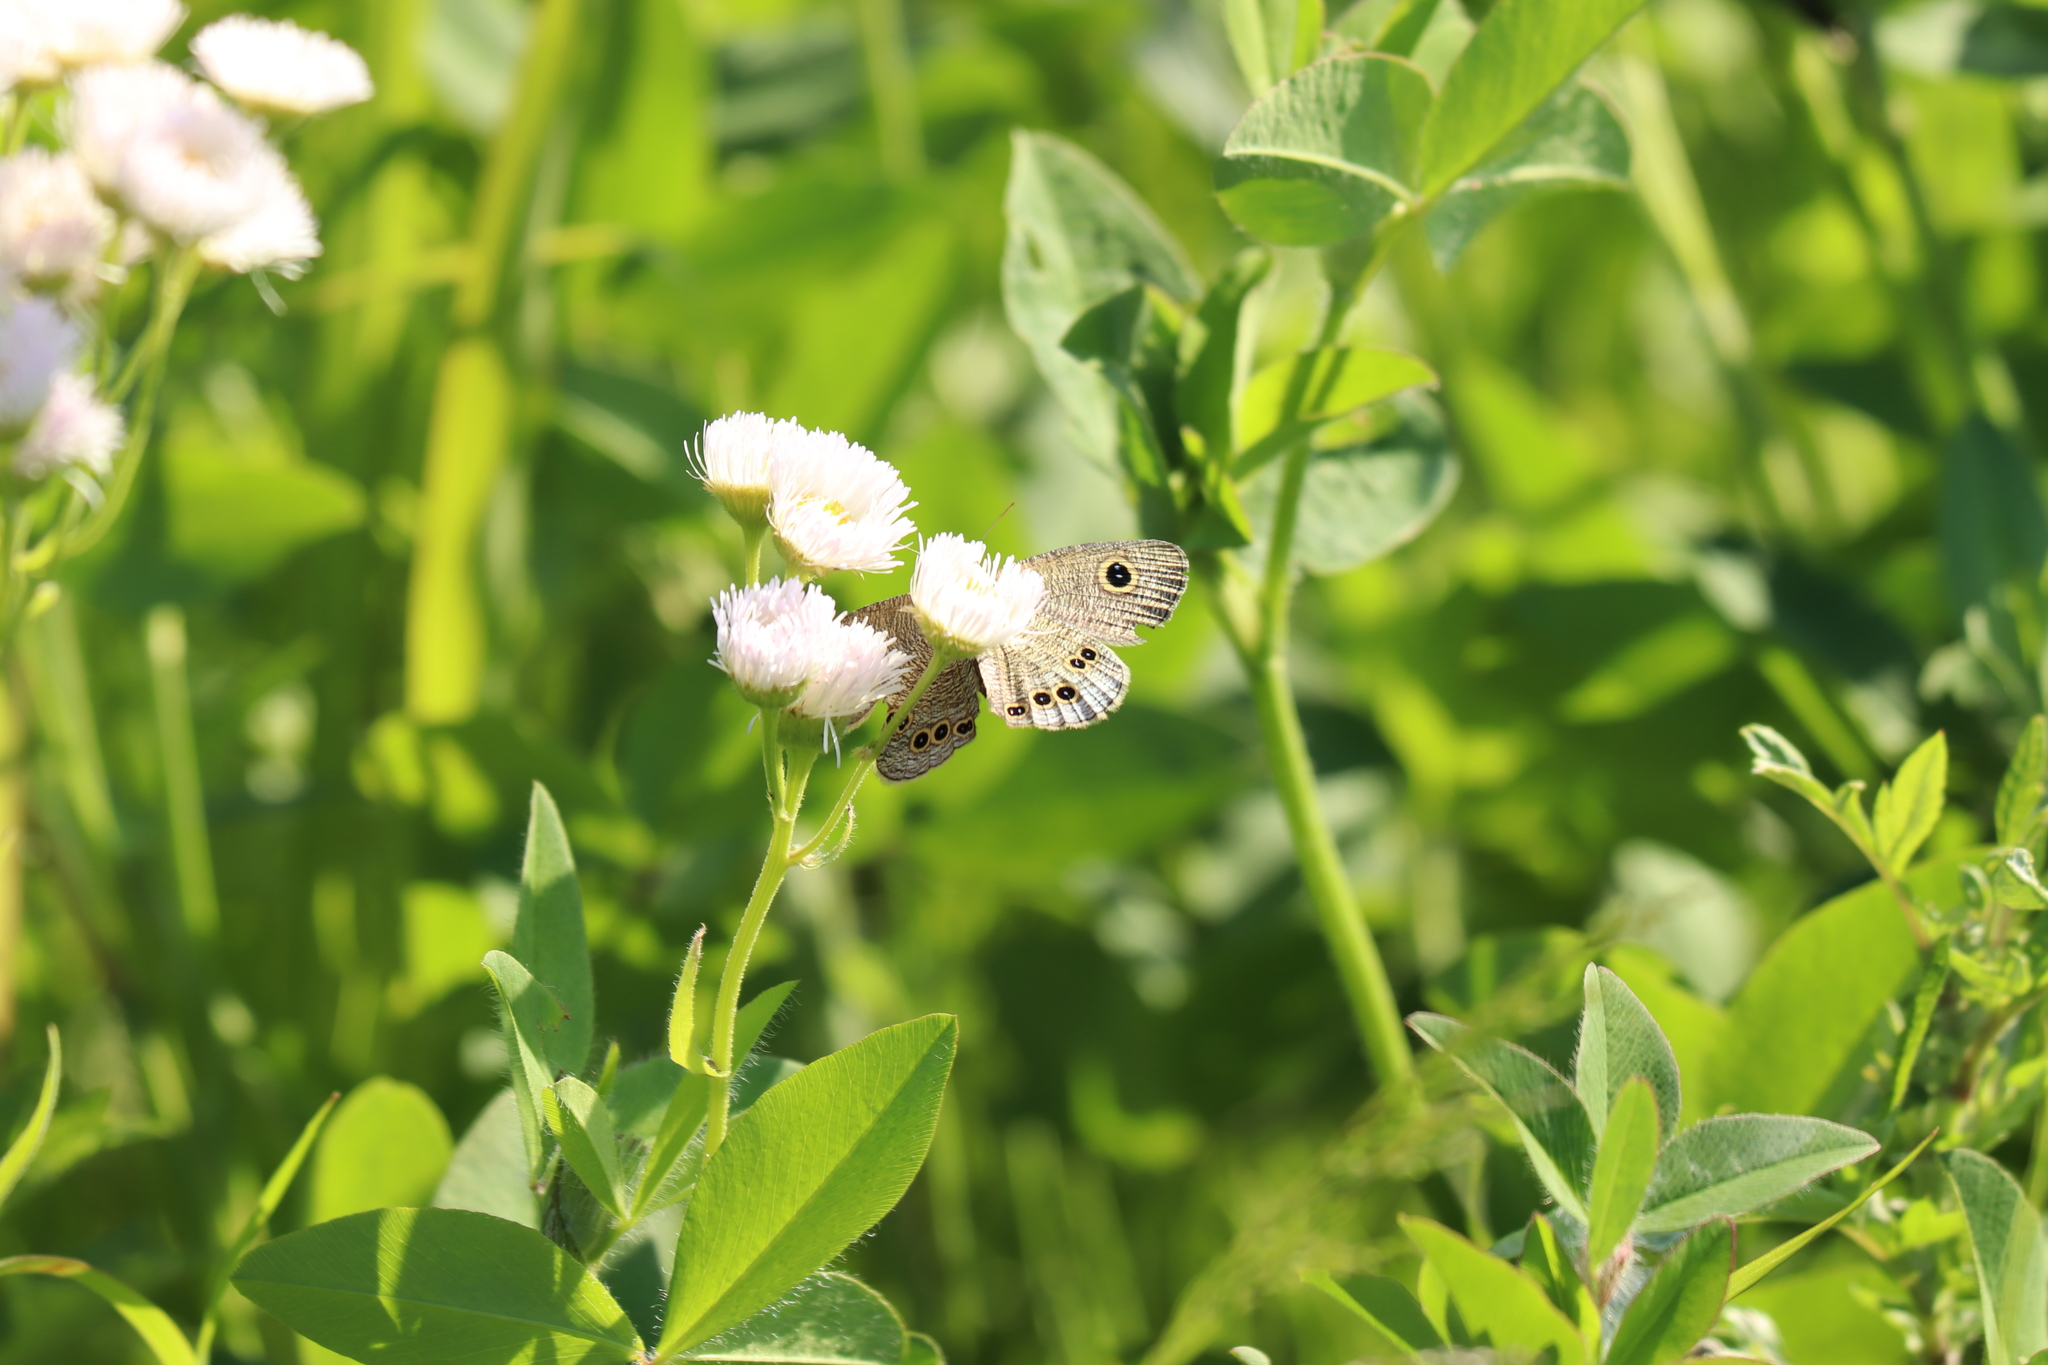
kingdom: Animalia
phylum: Arthropoda
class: Insecta
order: Lepidoptera
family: Nymphalidae
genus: Ypthima
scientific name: Ypthima argus
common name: Common fivering
